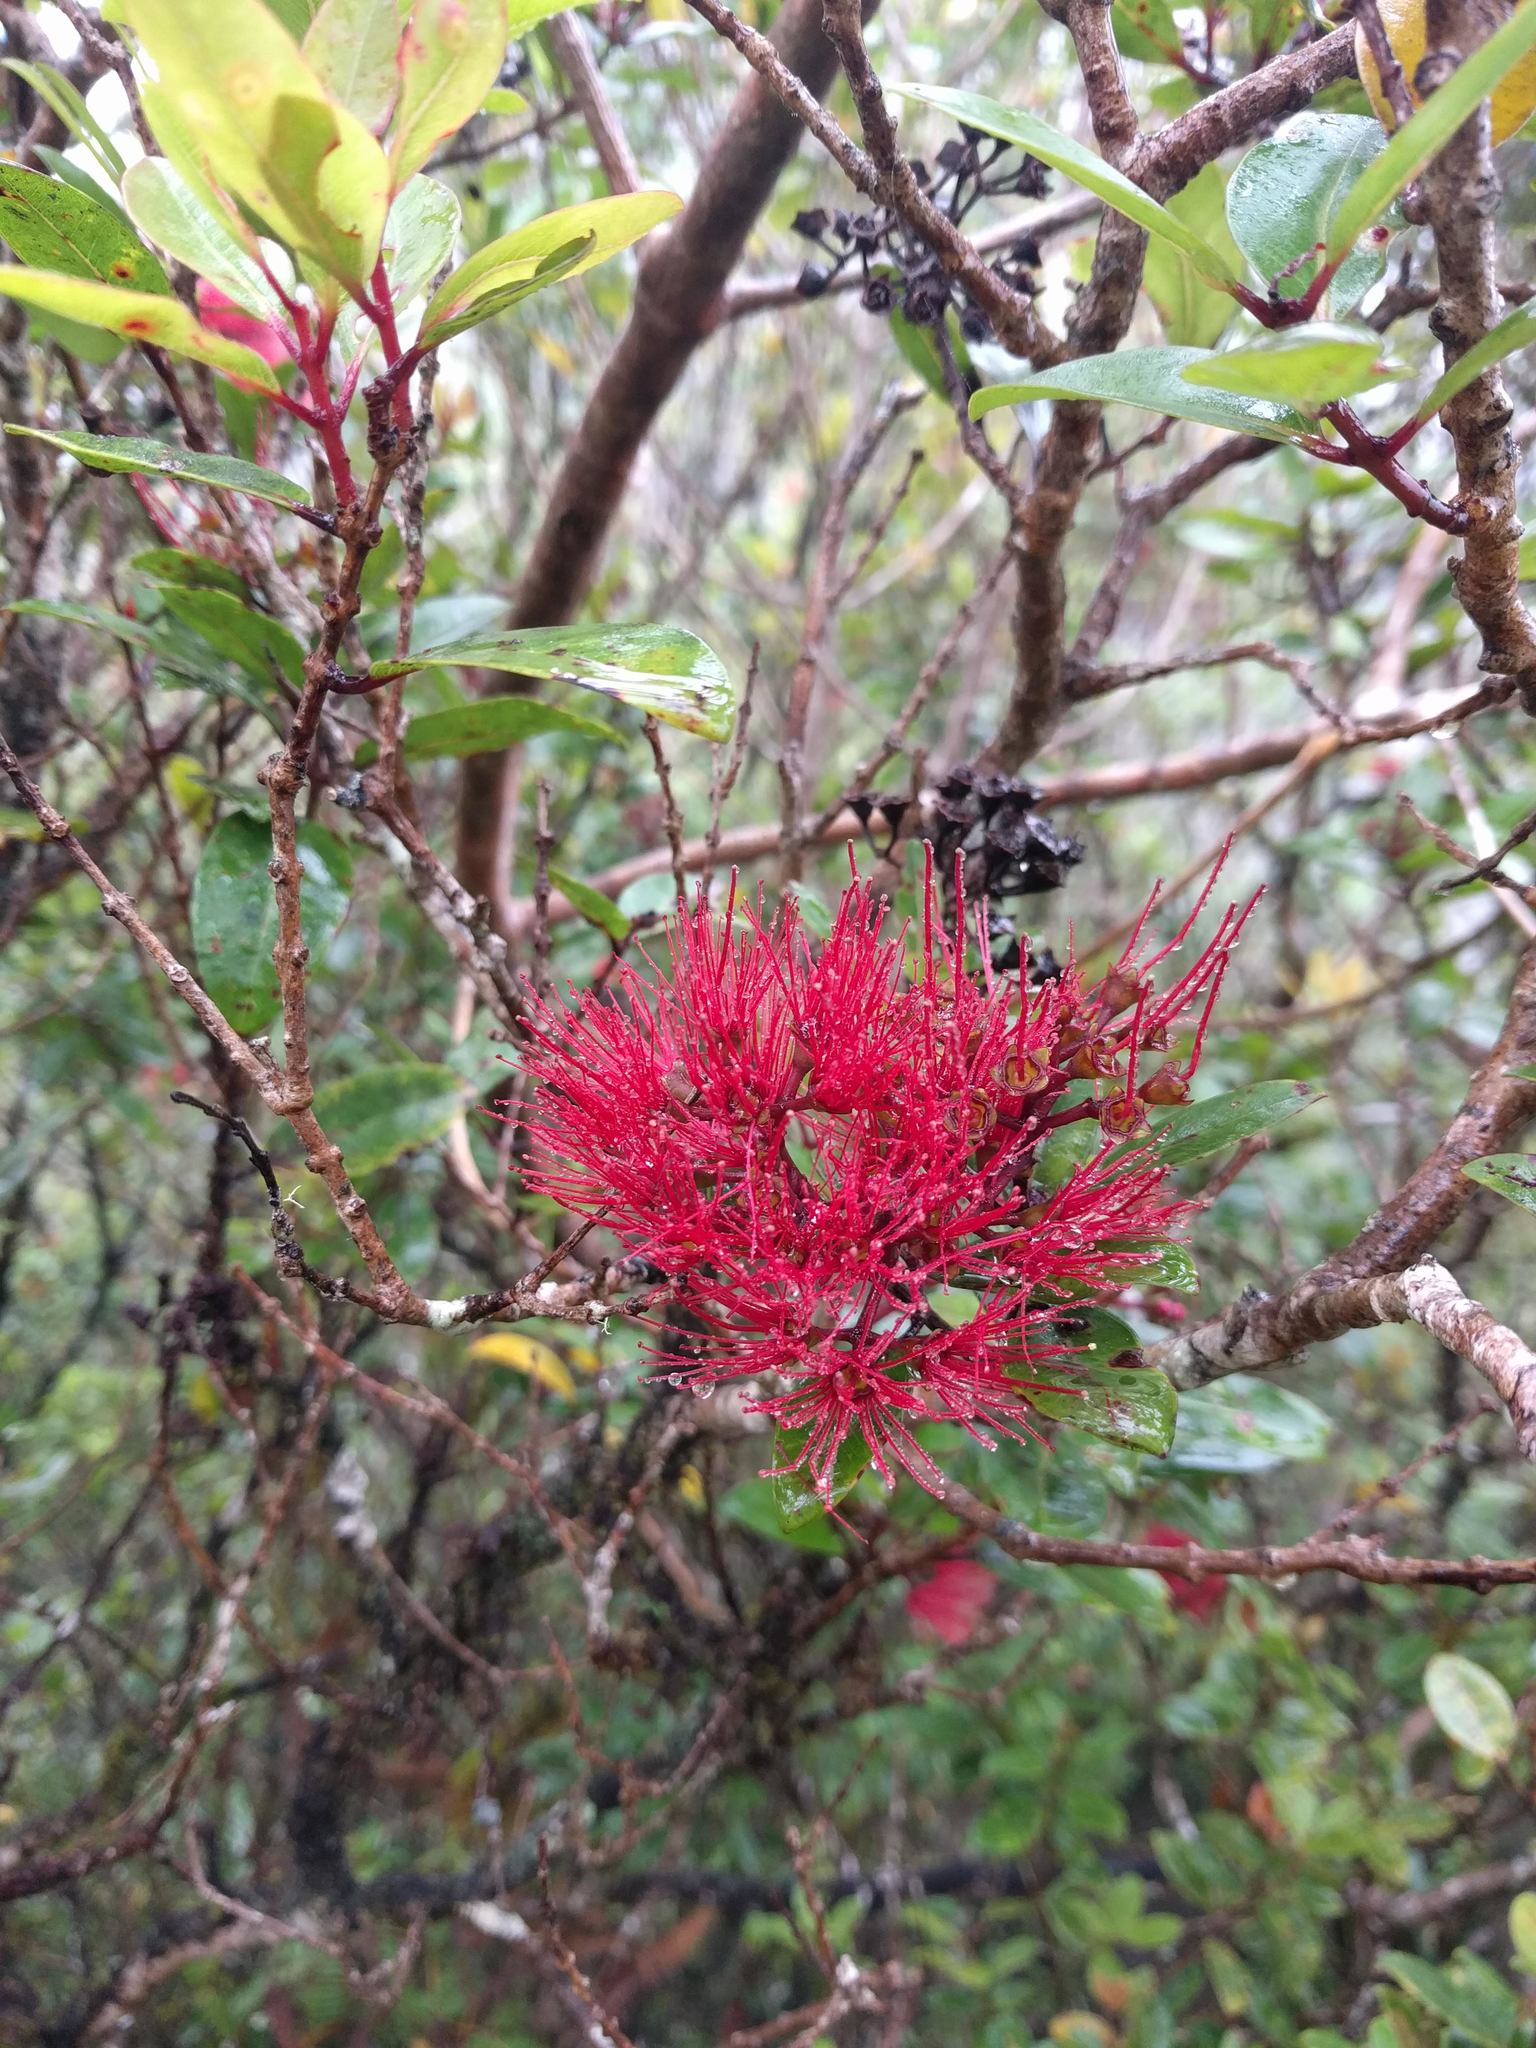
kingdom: Plantae
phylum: Tracheophyta
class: Magnoliopsida
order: Myrtales
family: Myrtaceae
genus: Metrosideros
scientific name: Metrosideros polymorpha
